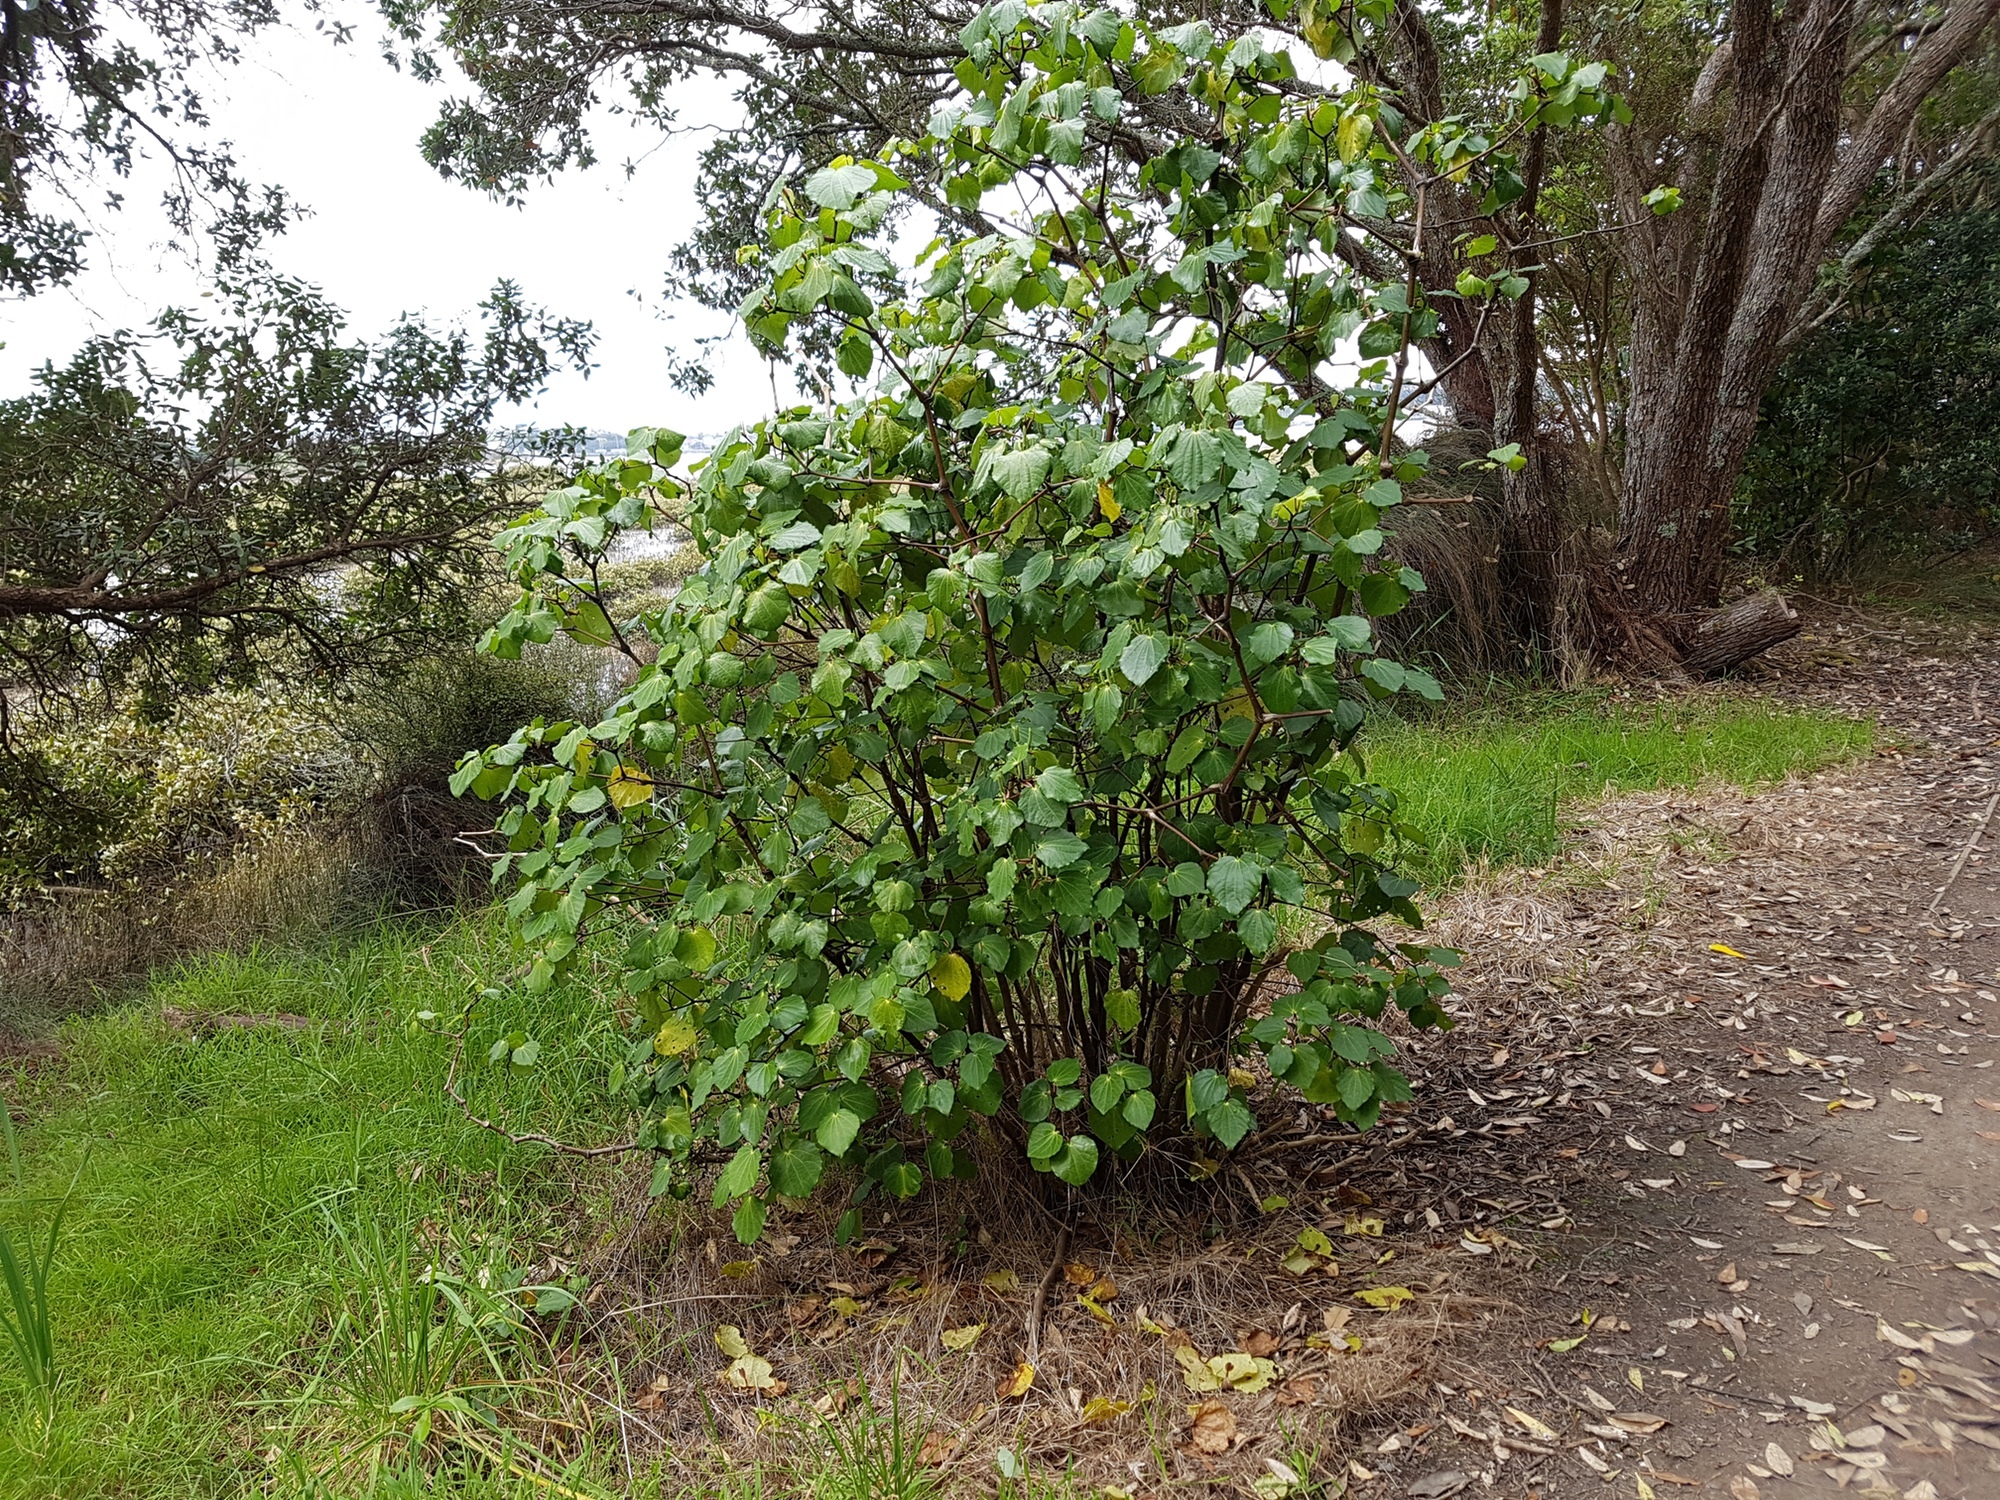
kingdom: Plantae
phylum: Tracheophyta
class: Magnoliopsida
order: Piperales
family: Piperaceae
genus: Macropiper
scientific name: Macropiper excelsum
